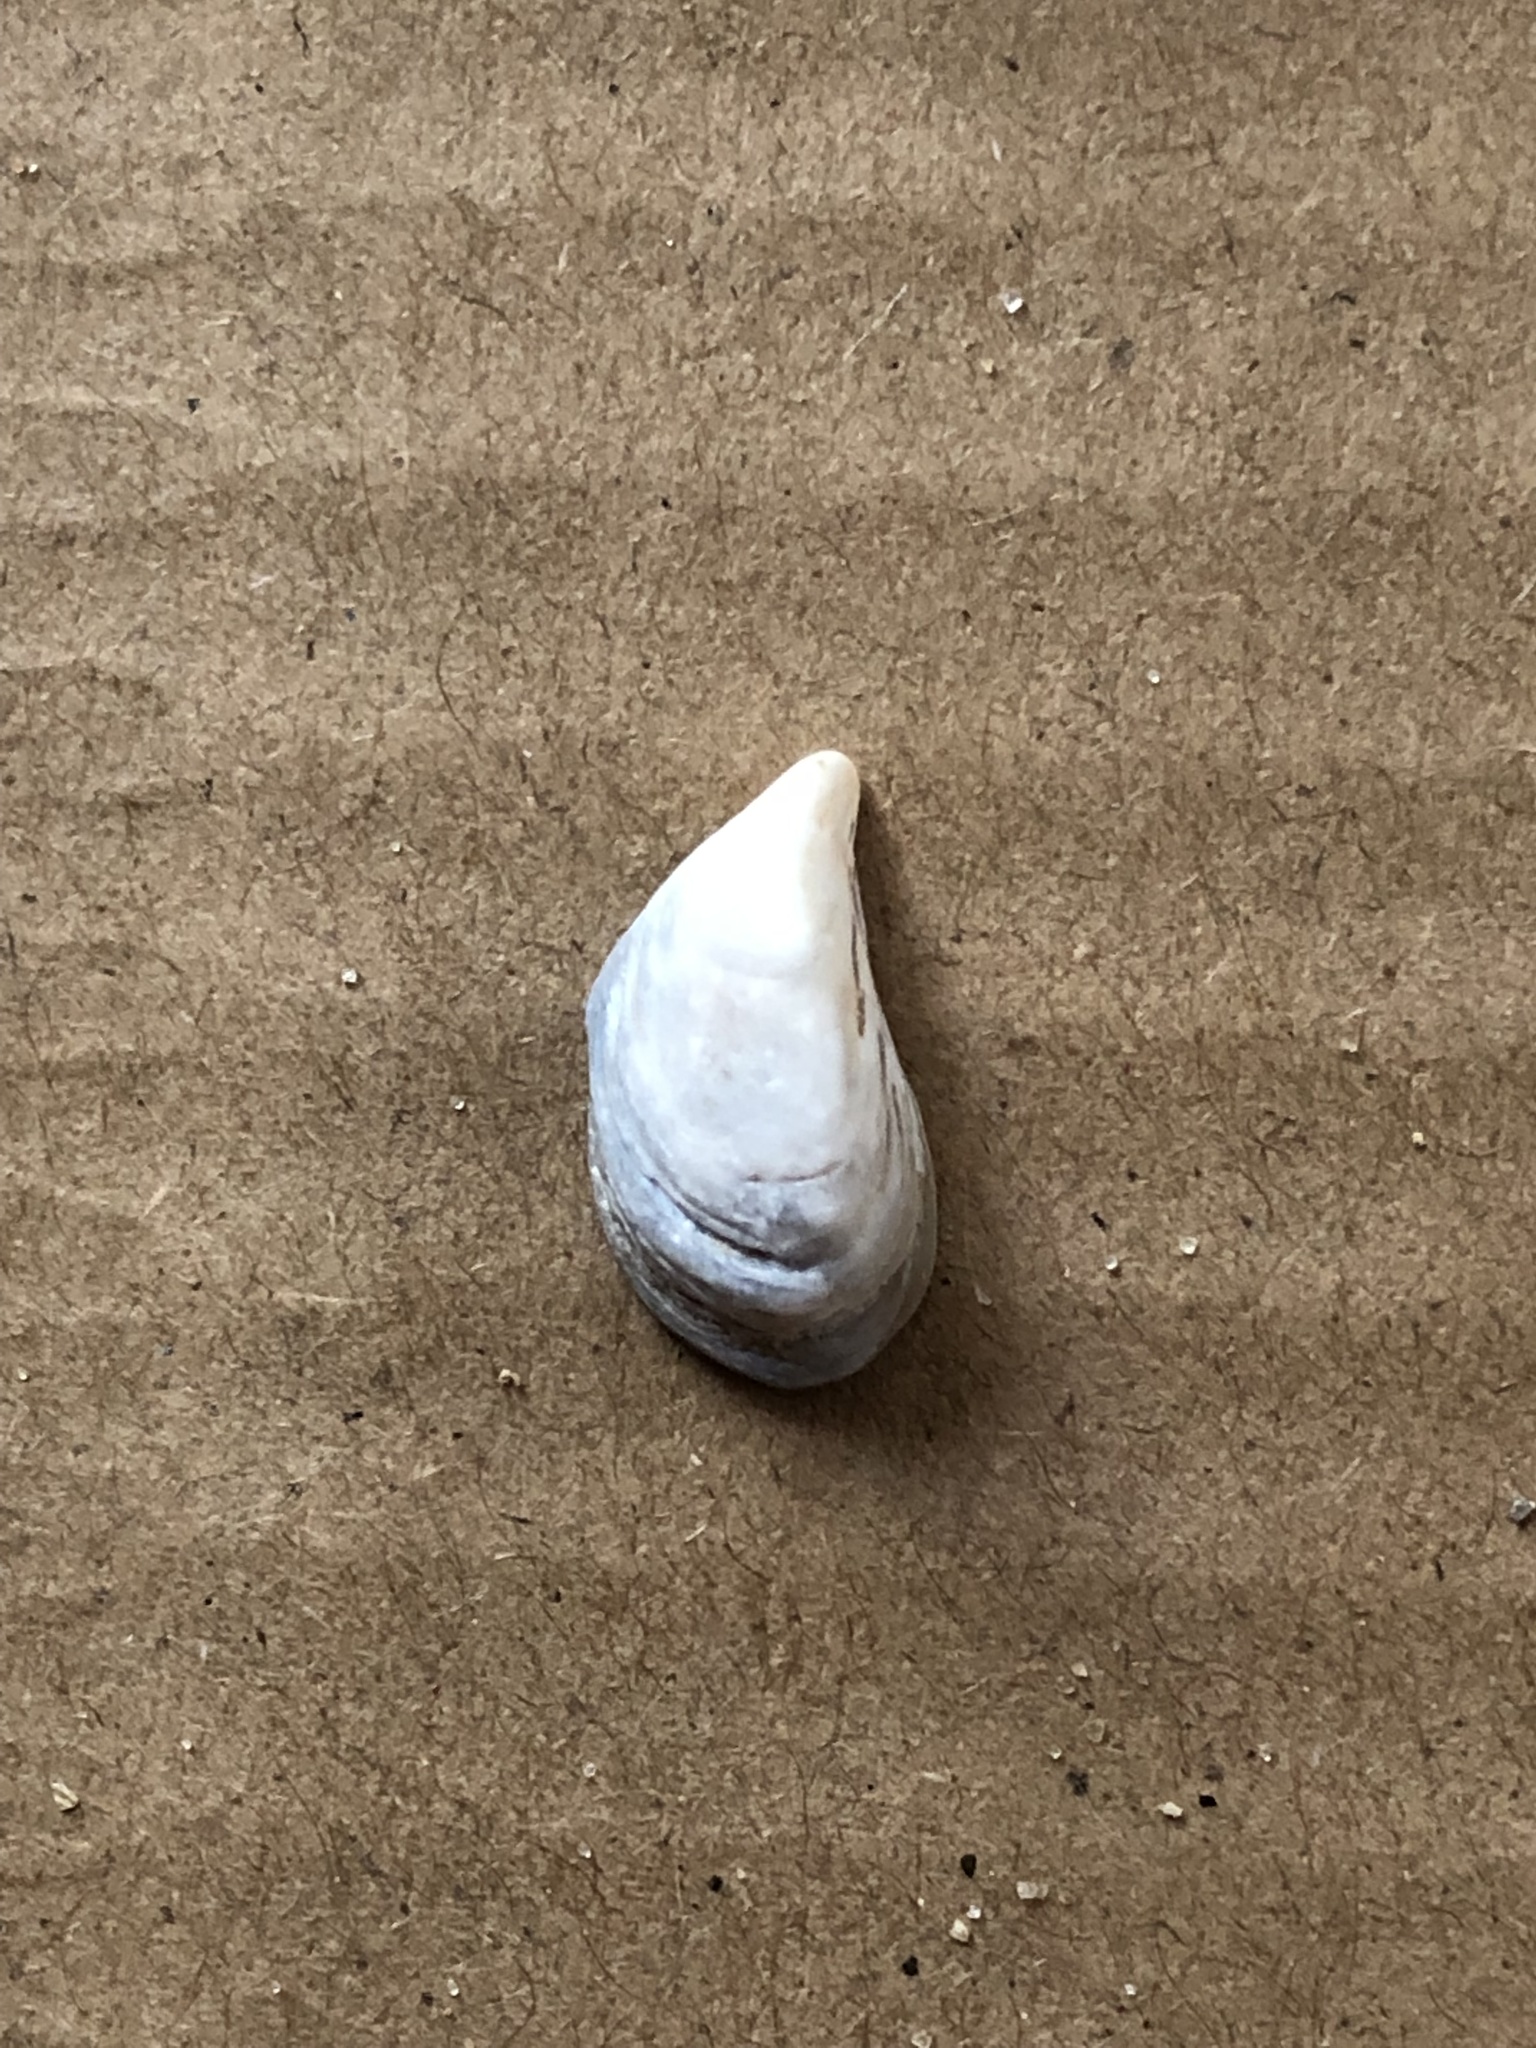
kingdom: Animalia
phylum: Mollusca
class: Bivalvia
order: Myida
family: Dreissenidae
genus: Dreissena
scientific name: Dreissena bugensis
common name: Quagga mussel
